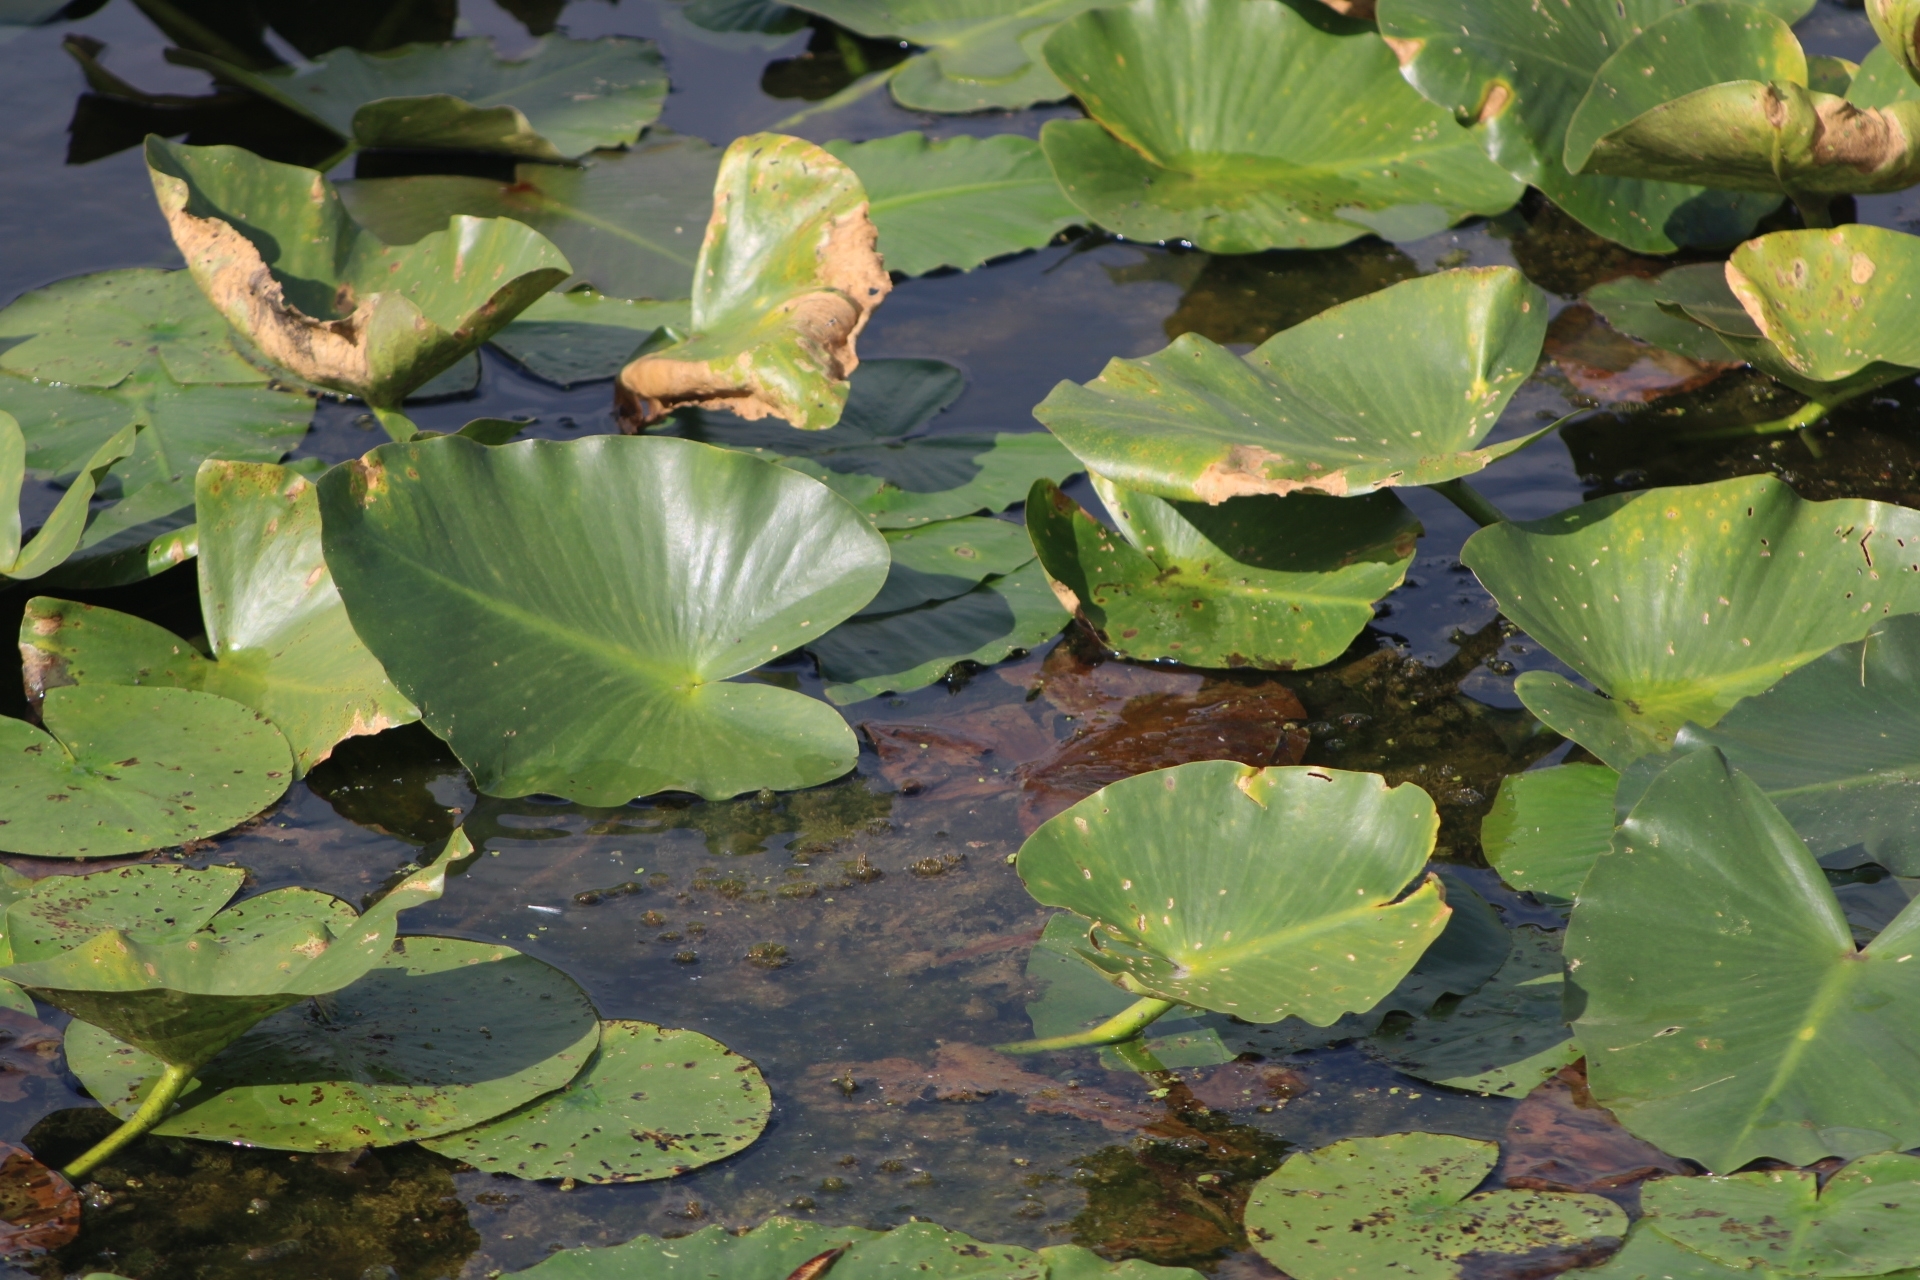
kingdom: Plantae
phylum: Tracheophyta
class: Magnoliopsida
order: Nymphaeales
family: Nymphaeaceae
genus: Nuphar
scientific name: Nuphar advena
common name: Spatter-dock
